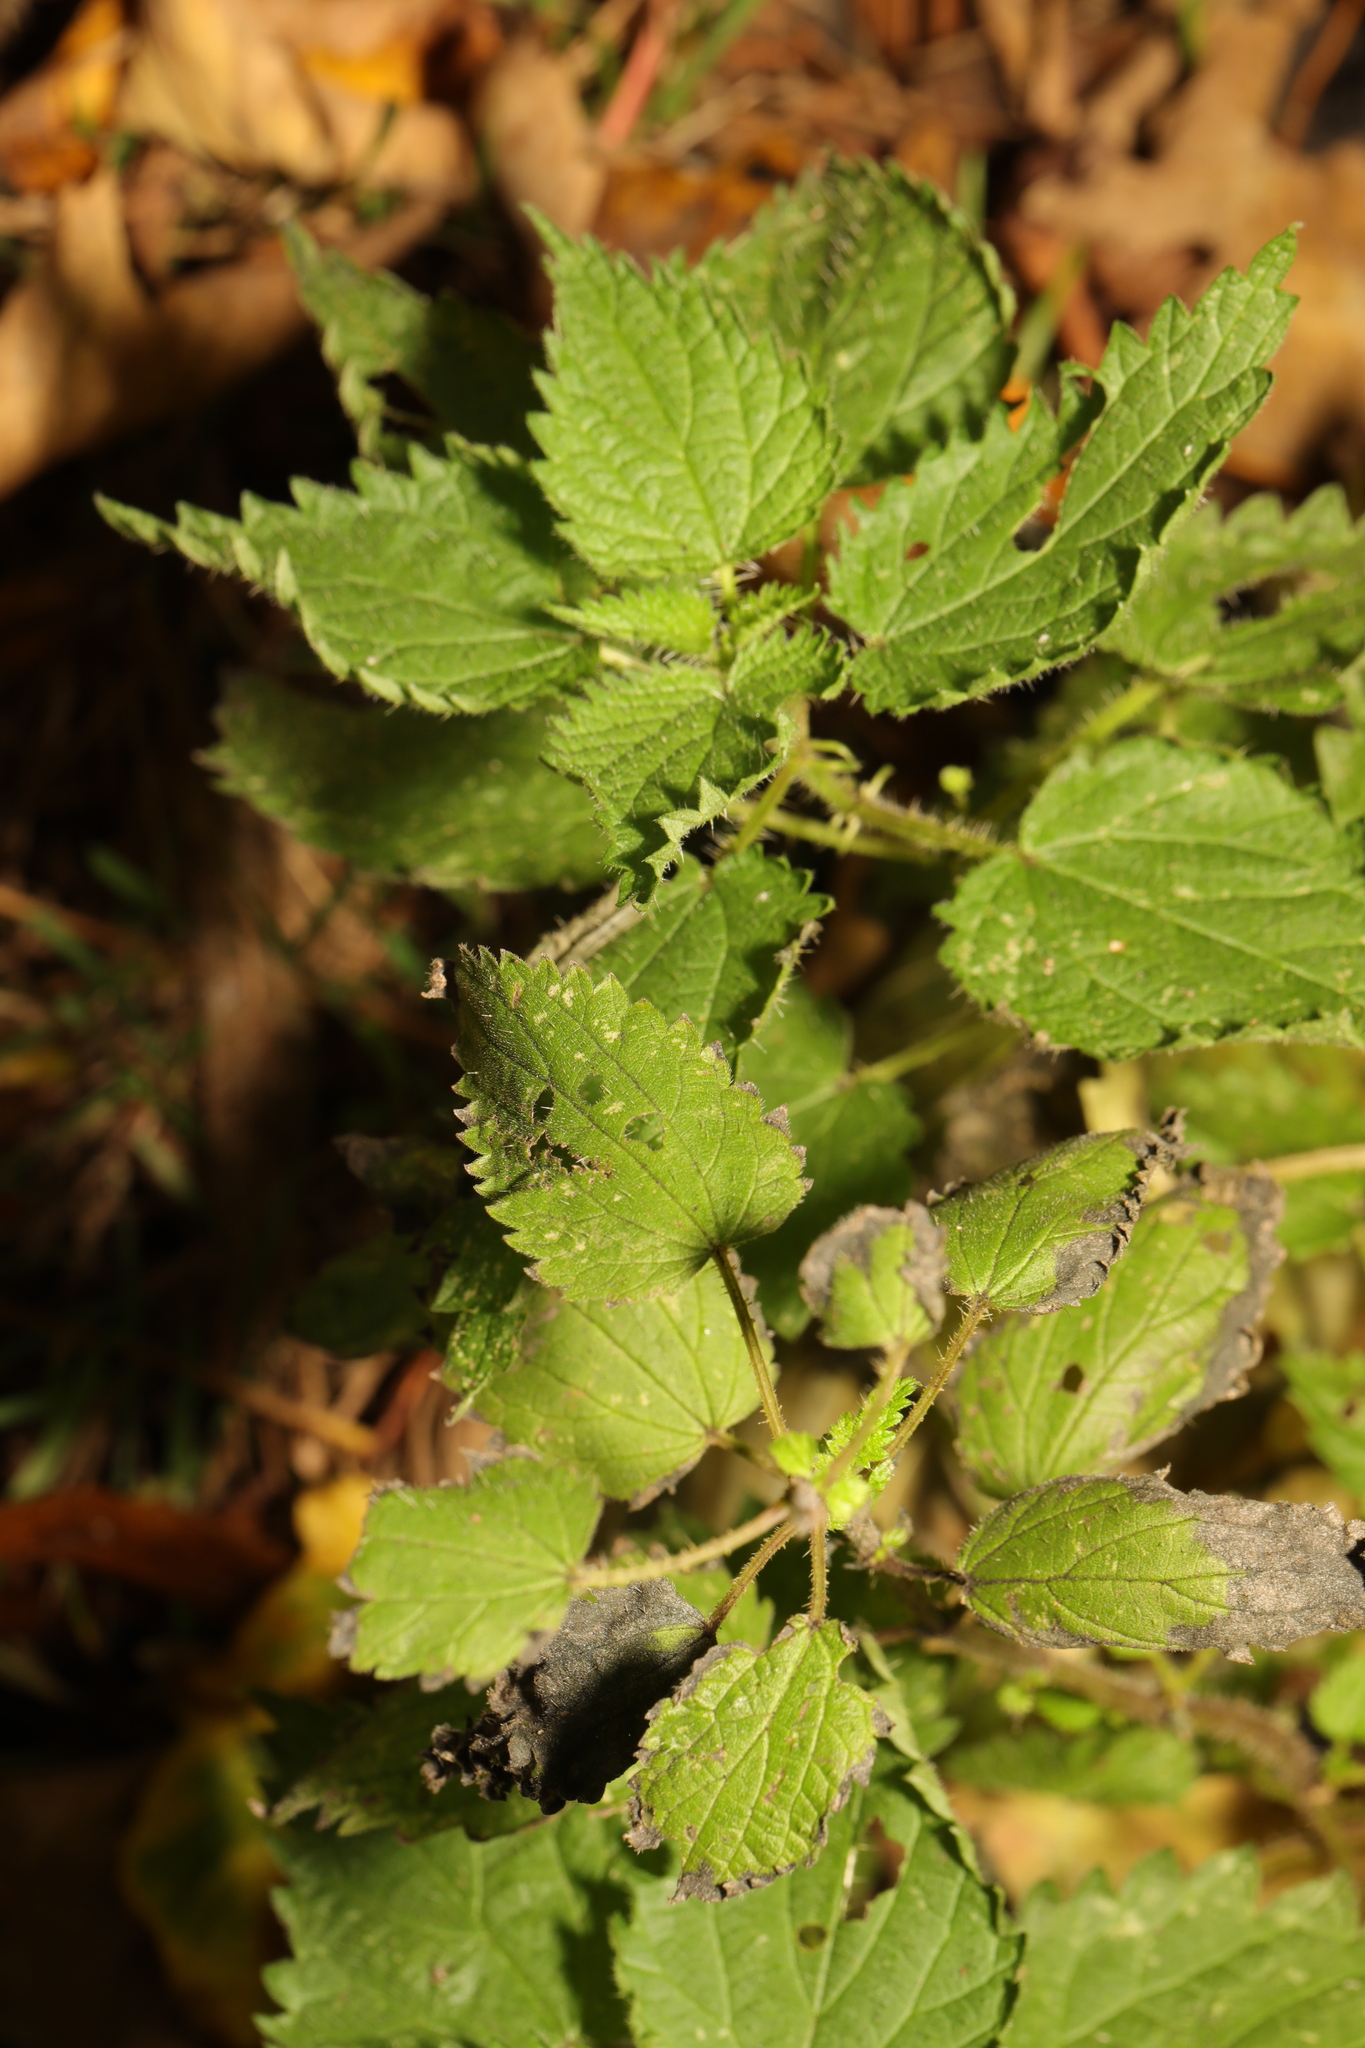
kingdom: Plantae
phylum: Tracheophyta
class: Magnoliopsida
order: Rosales
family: Urticaceae
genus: Urtica
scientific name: Urtica dioica
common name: Common nettle
